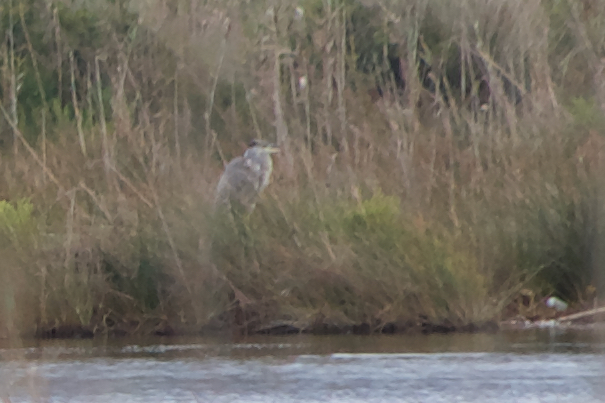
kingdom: Animalia
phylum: Chordata
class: Aves
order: Pelecaniformes
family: Ardeidae
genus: Ardea
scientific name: Ardea cinerea
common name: Grey heron
